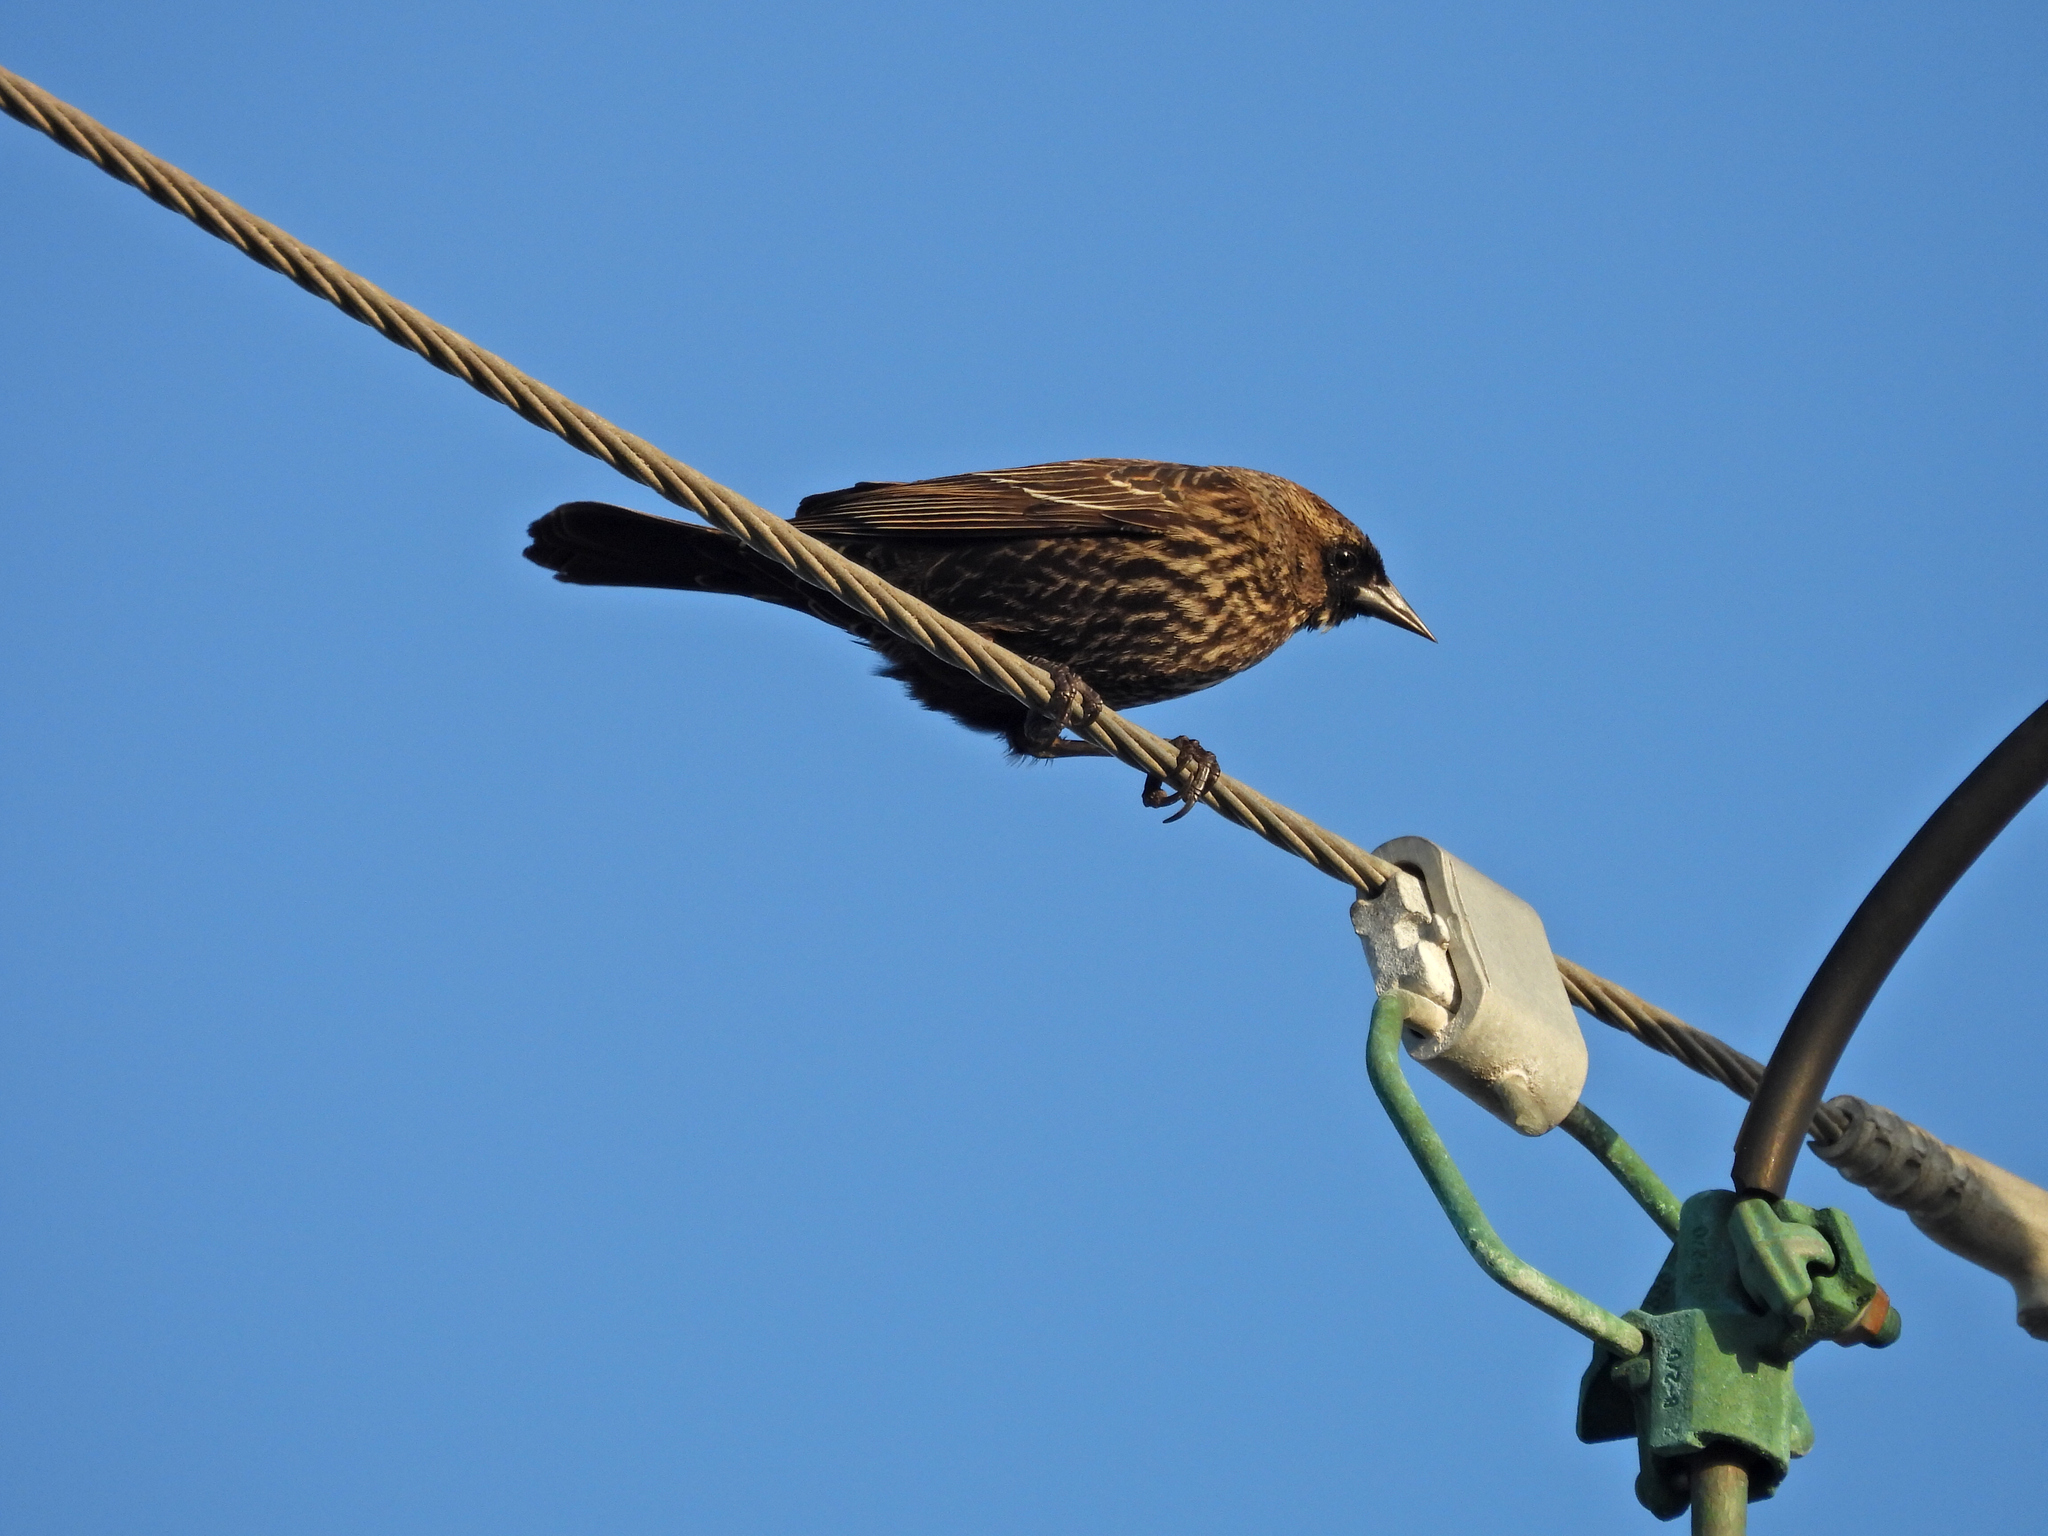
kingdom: Animalia
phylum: Chordata
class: Aves
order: Passeriformes
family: Icteridae
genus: Agelaius
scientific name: Agelaius phoeniceus
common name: Red-winged blackbird
